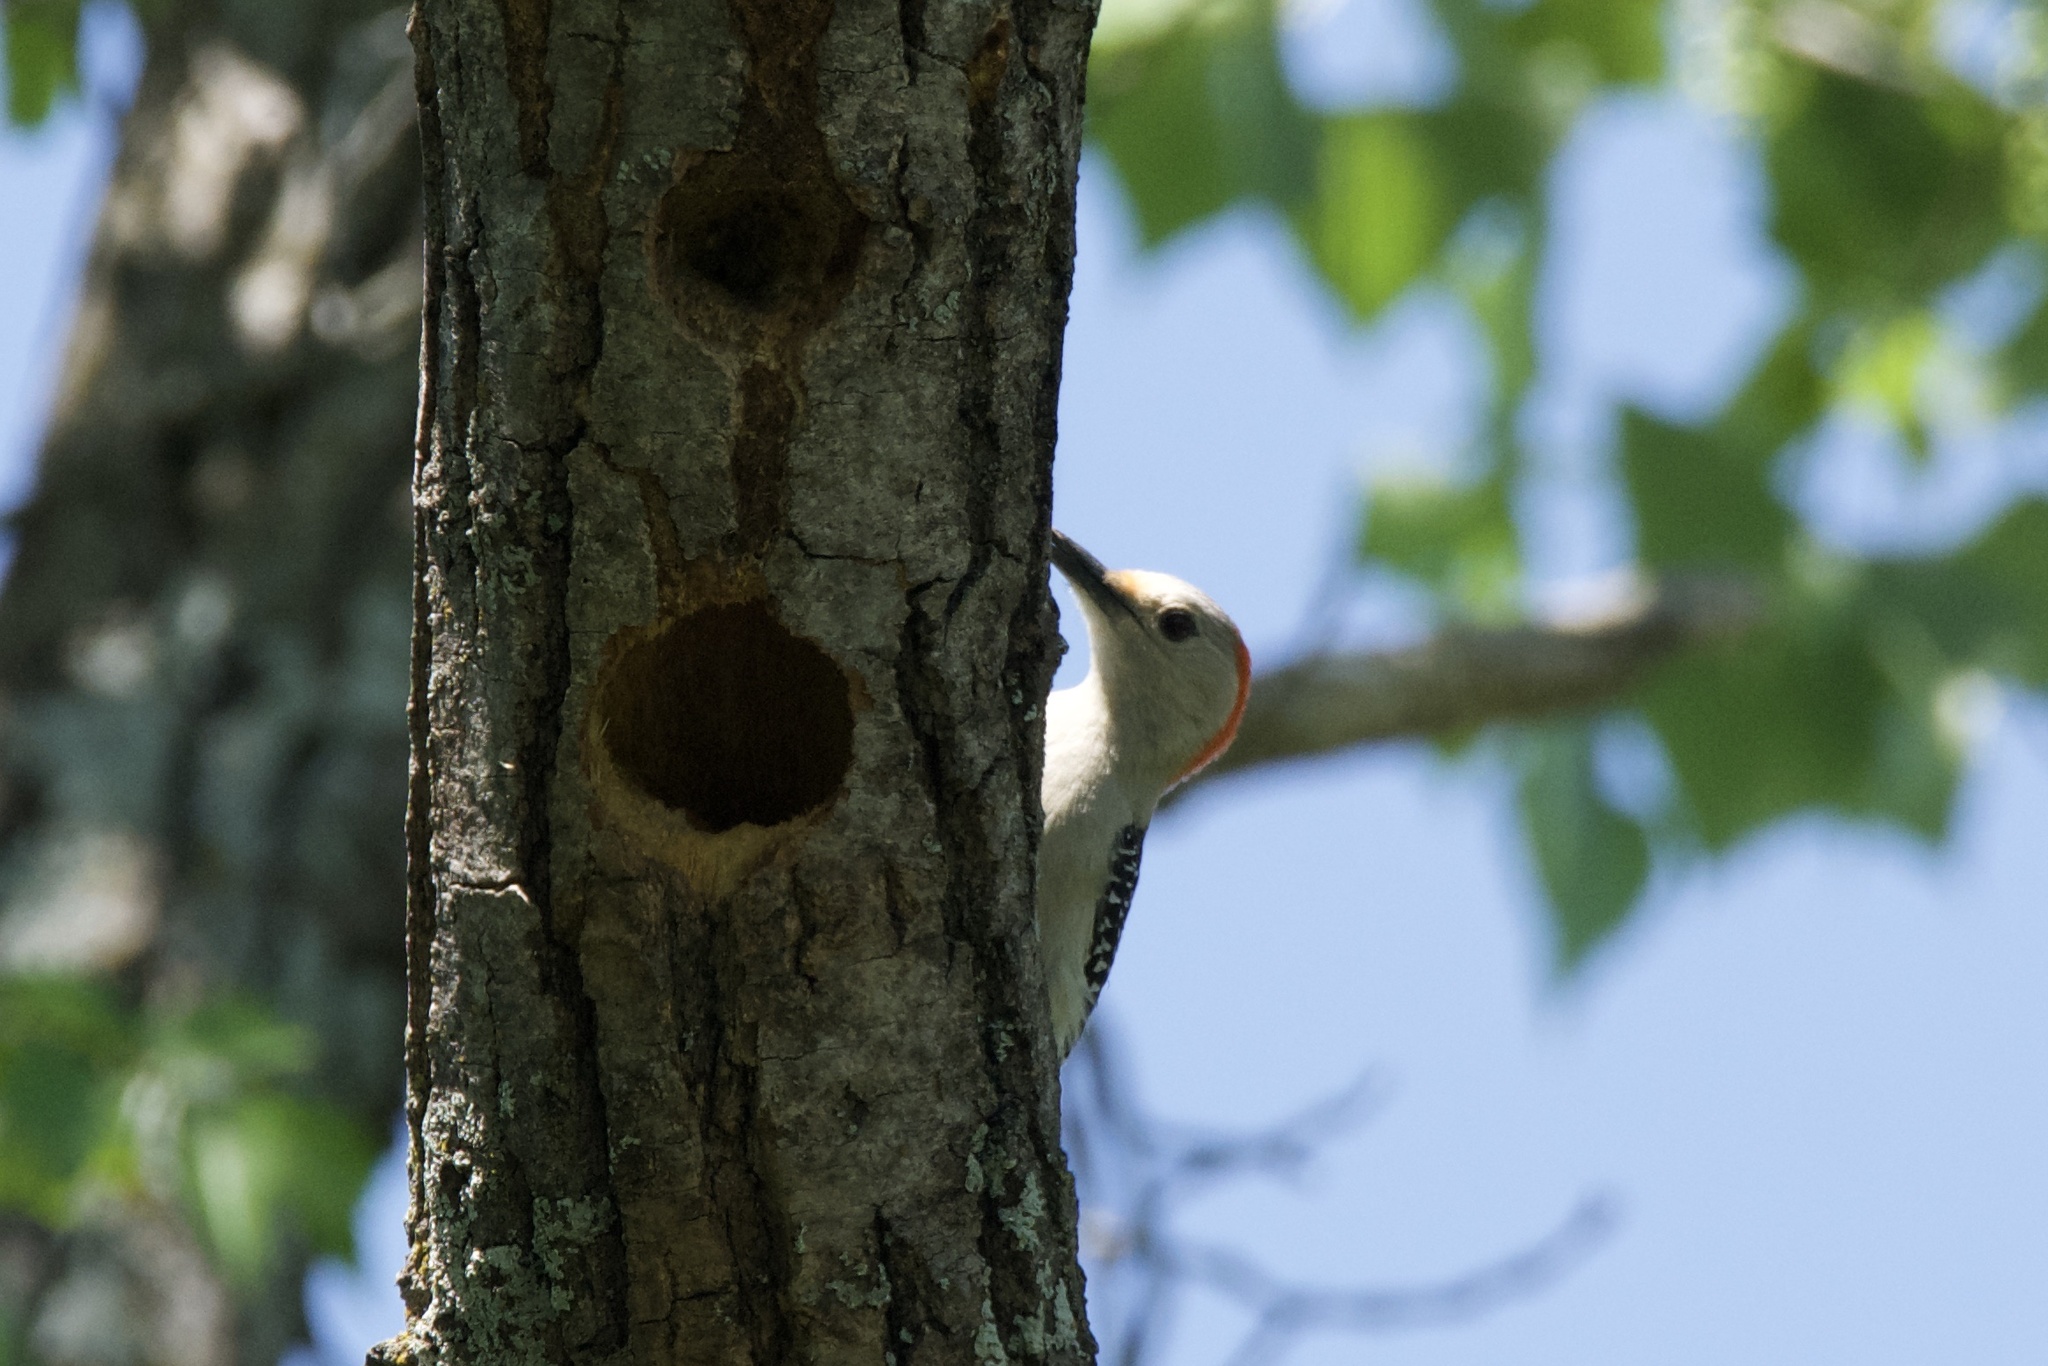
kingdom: Animalia
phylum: Chordata
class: Aves
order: Piciformes
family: Picidae
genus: Melanerpes
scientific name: Melanerpes carolinus
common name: Red-bellied woodpecker
